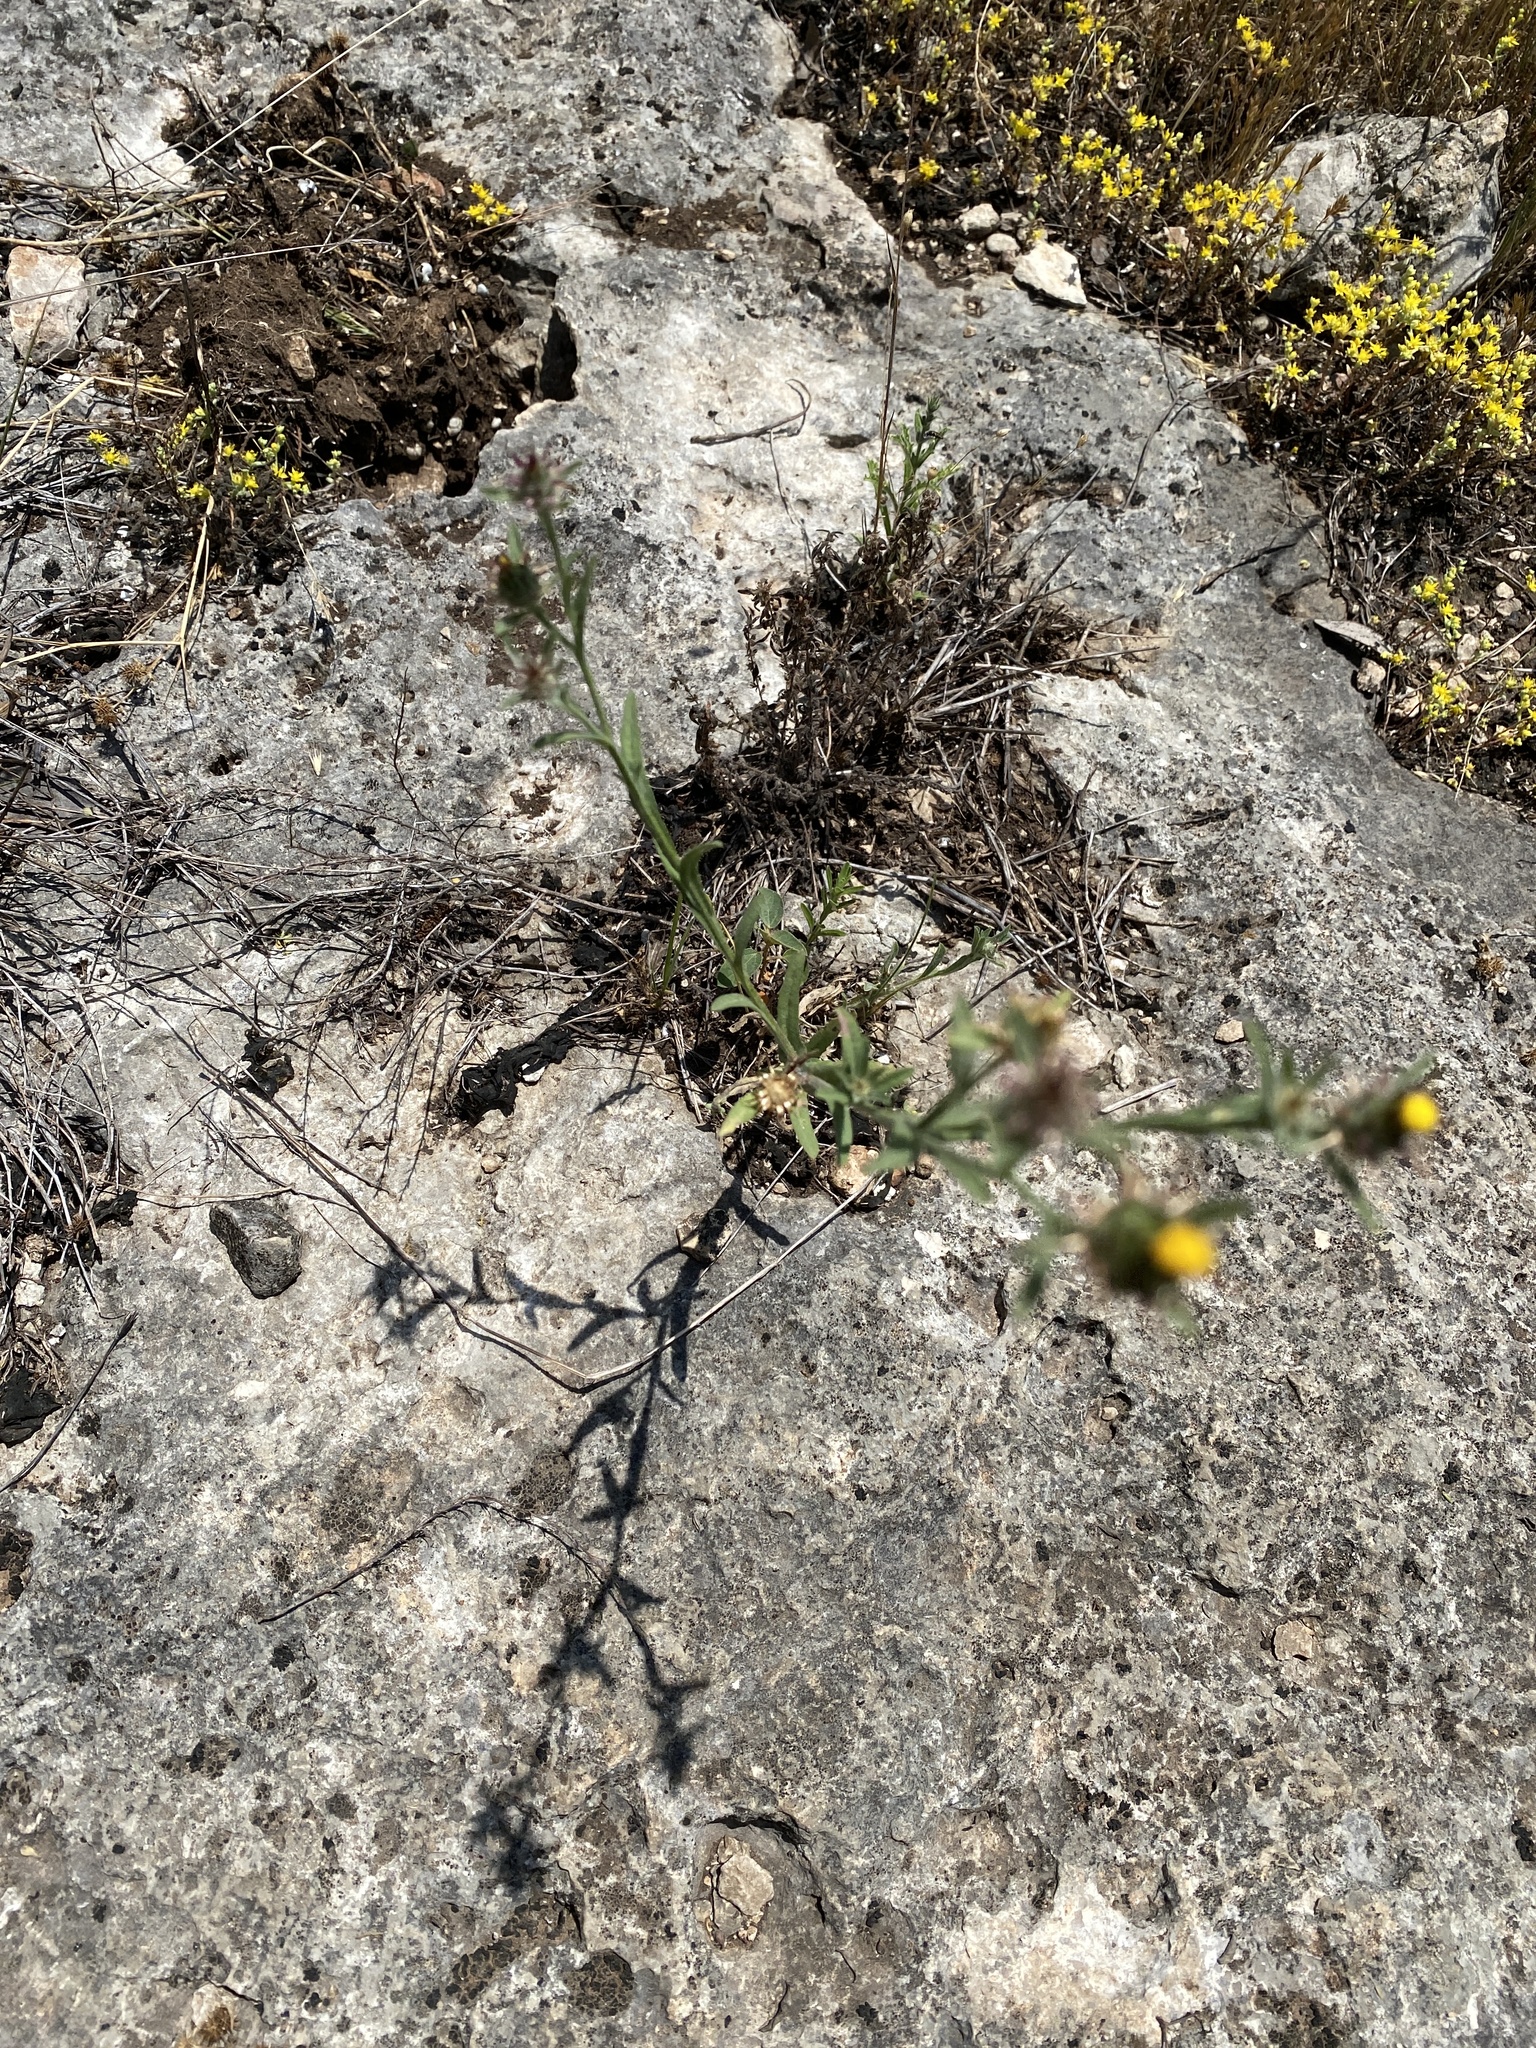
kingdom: Plantae
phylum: Tracheophyta
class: Magnoliopsida
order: Asterales
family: Asteraceae
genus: Centaurea
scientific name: Centaurea melitensis
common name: Maltese star-thistle
